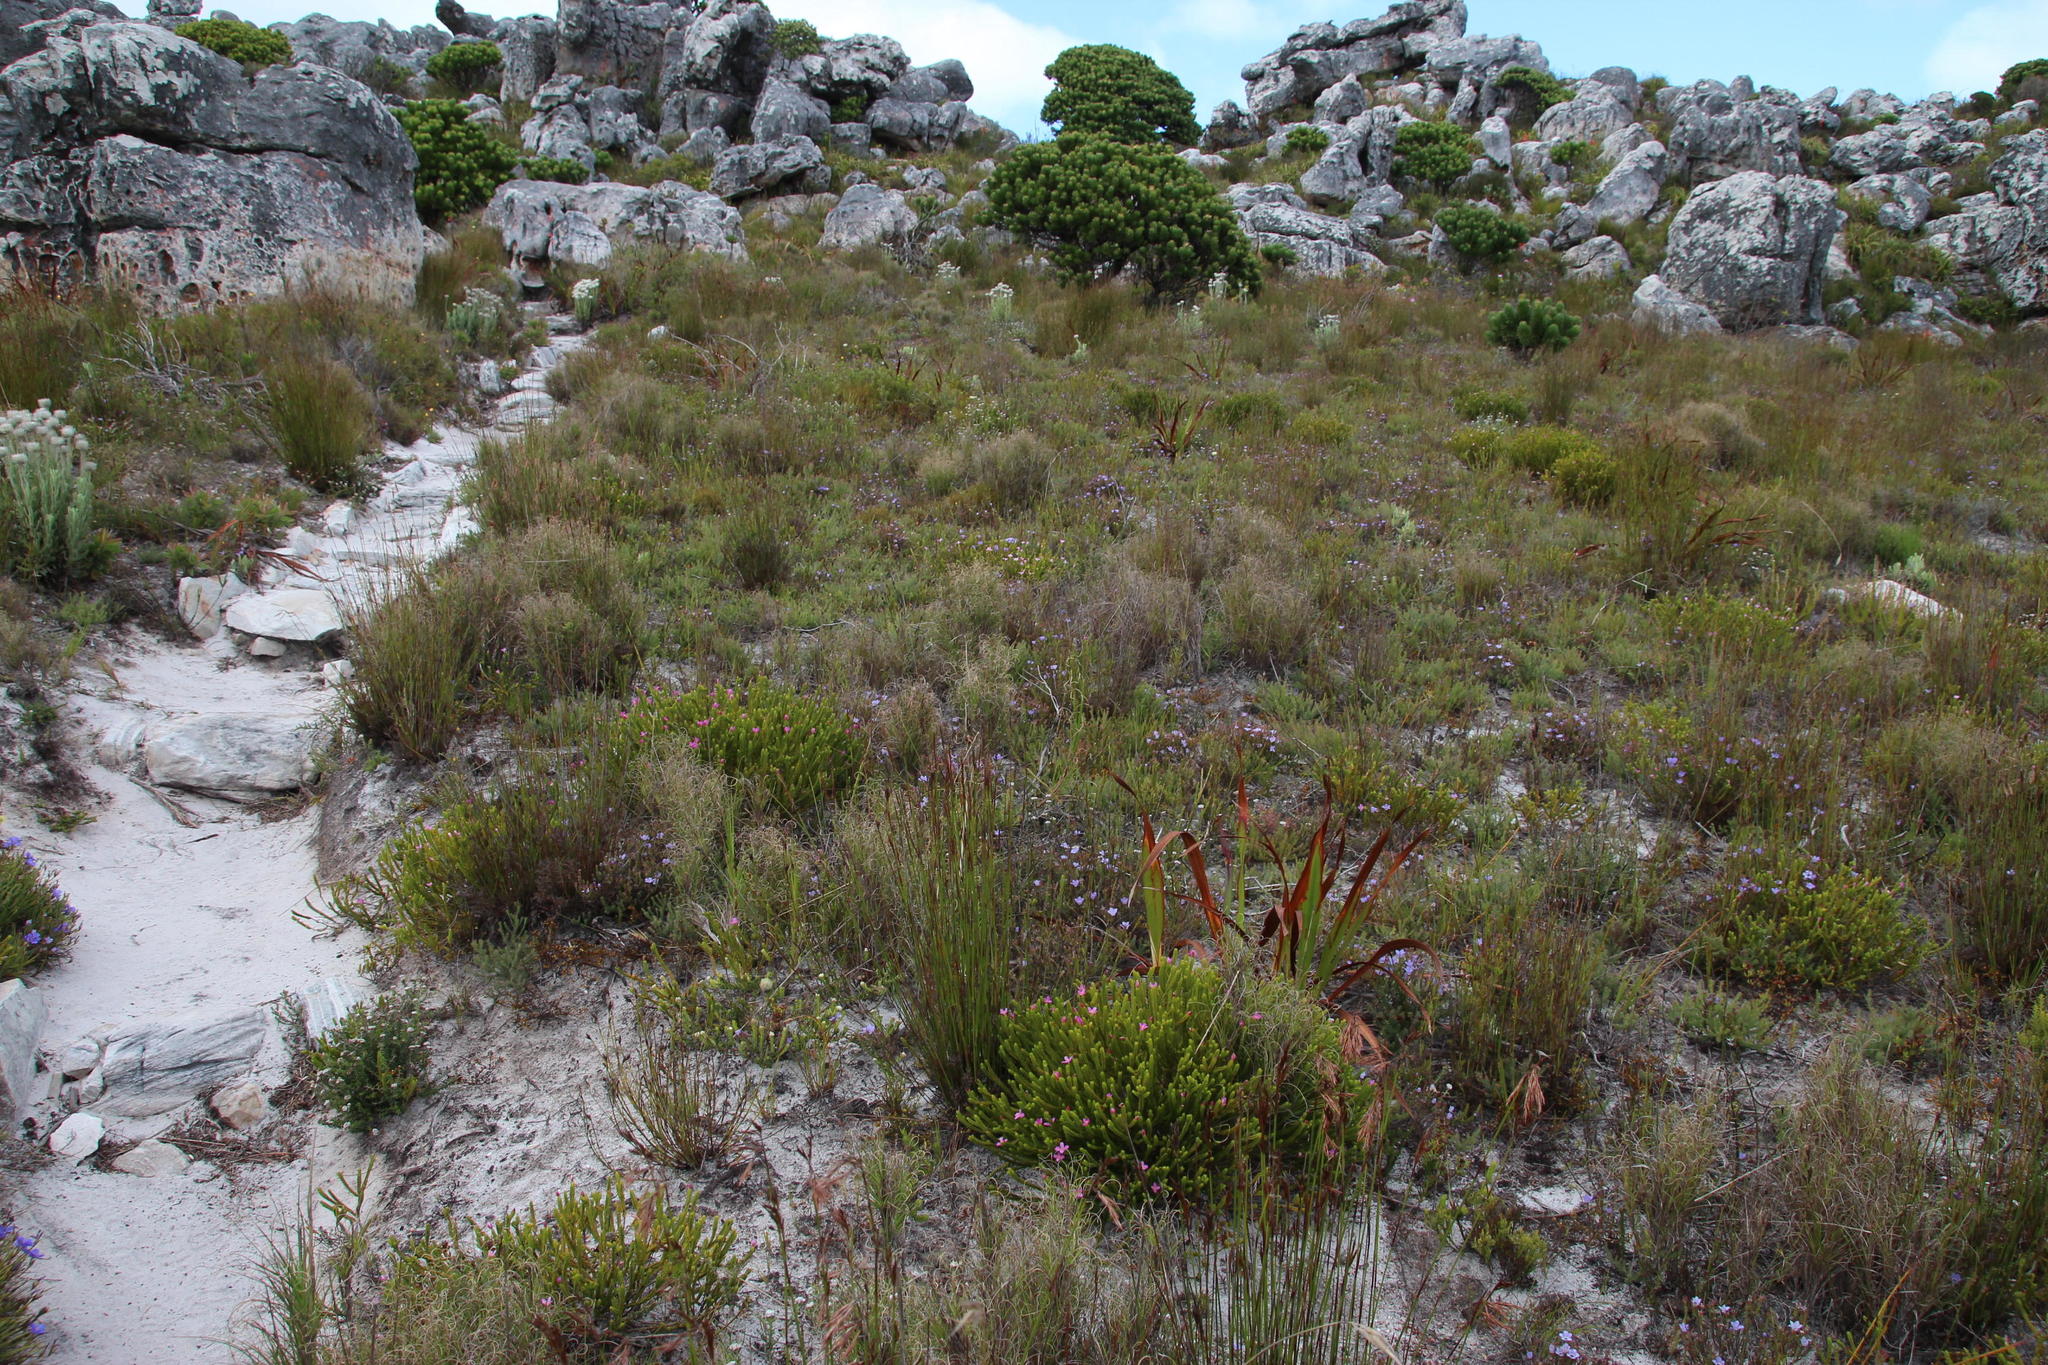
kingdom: Plantae
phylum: Tracheophyta
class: Liliopsida
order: Asparagales
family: Iridaceae
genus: Aristea
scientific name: Aristea africana
